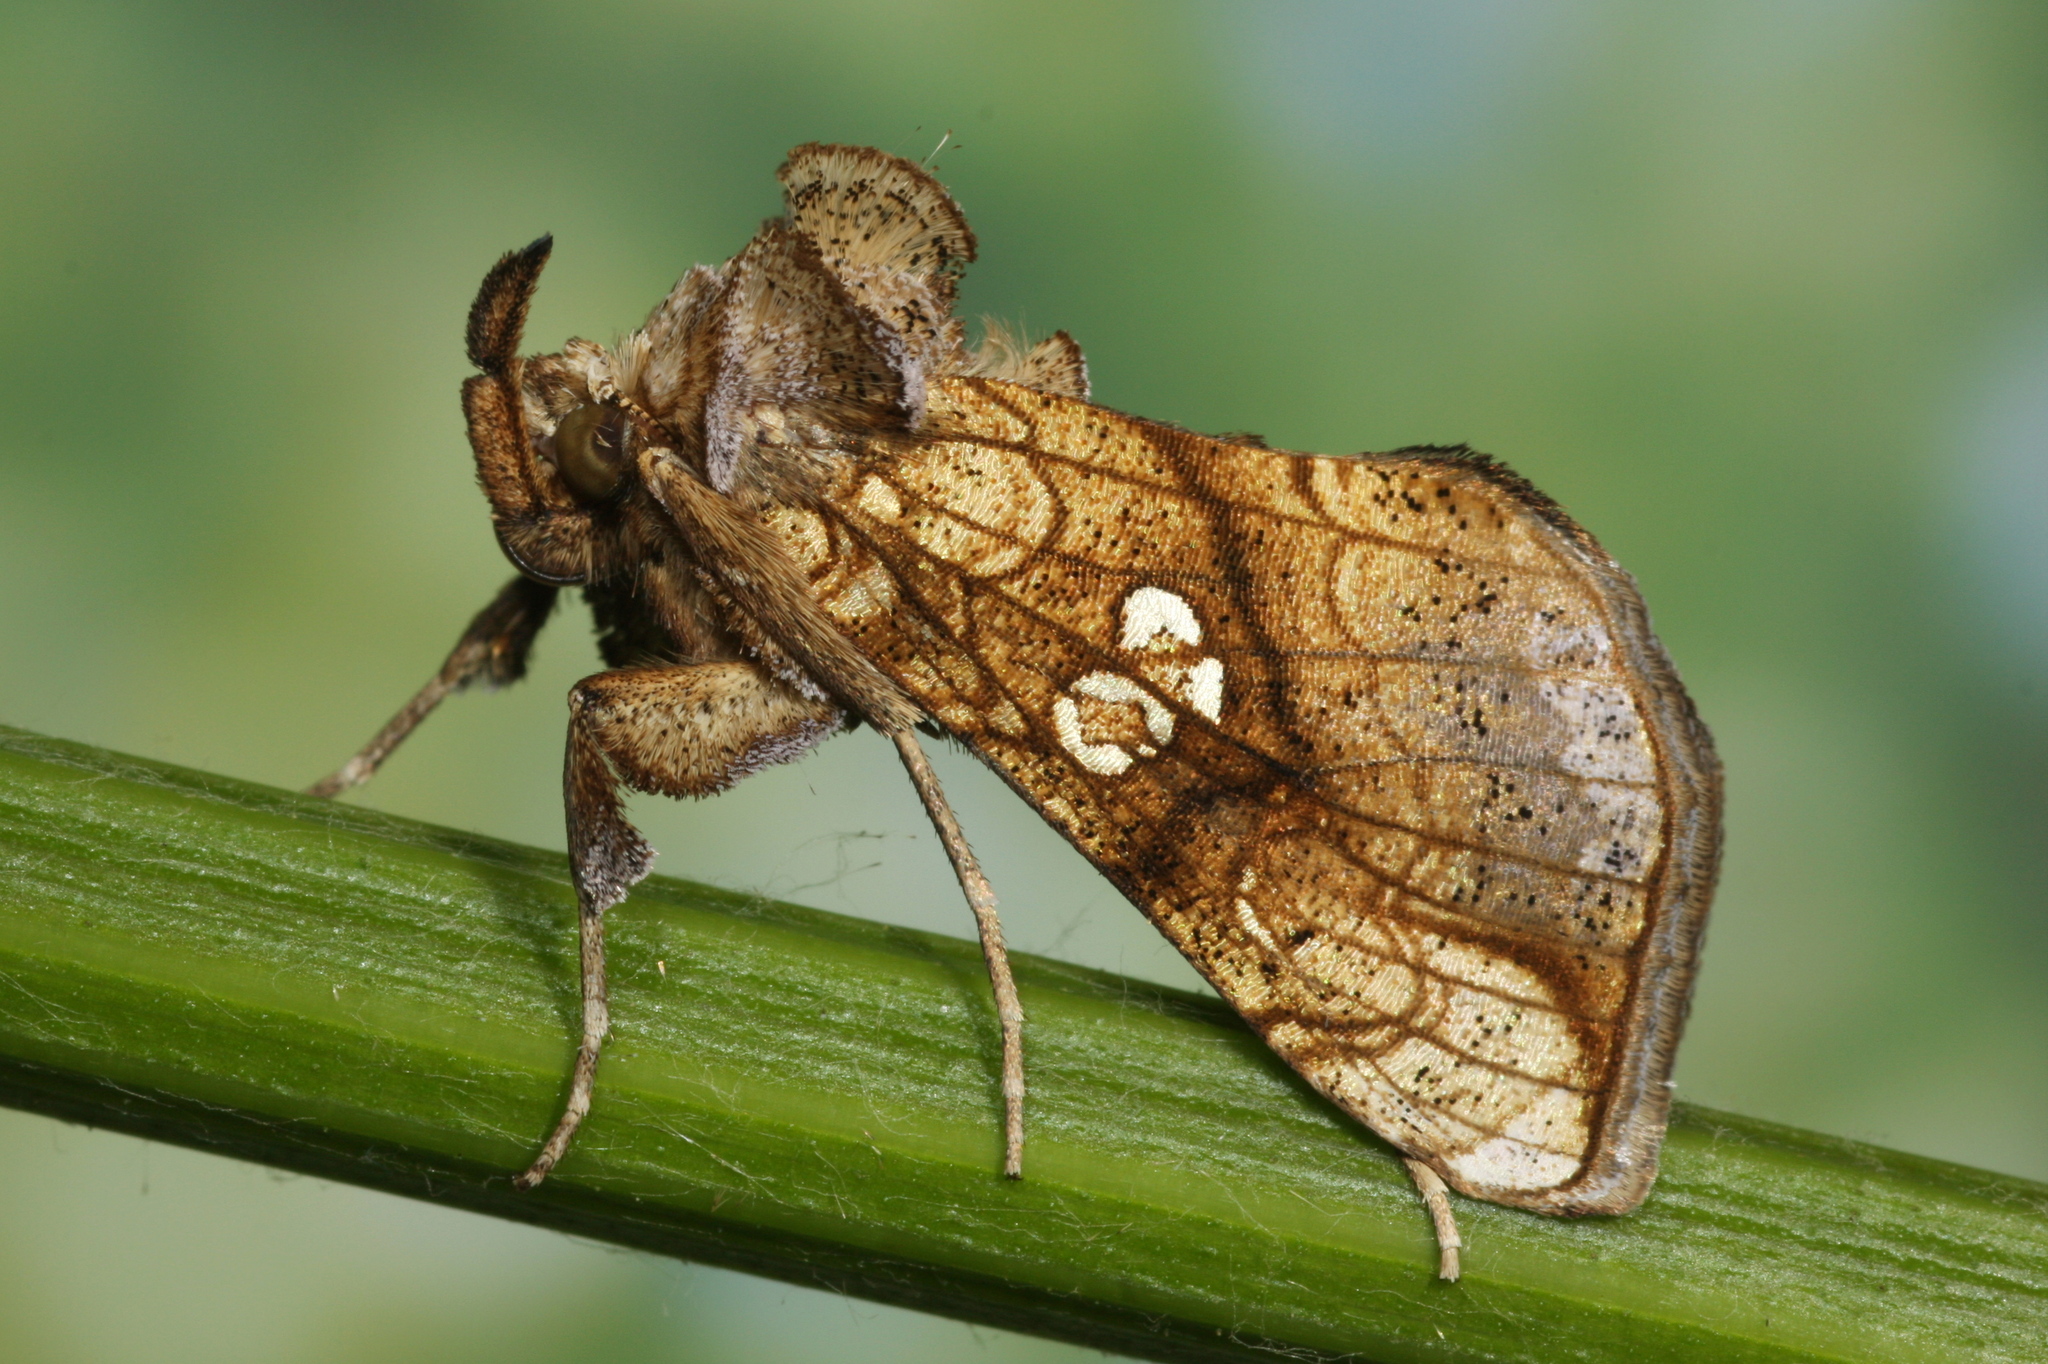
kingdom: Animalia
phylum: Arthropoda
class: Insecta
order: Lepidoptera
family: Noctuidae
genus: Polychrysia
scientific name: Polychrysia moneta
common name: Golden plusia
